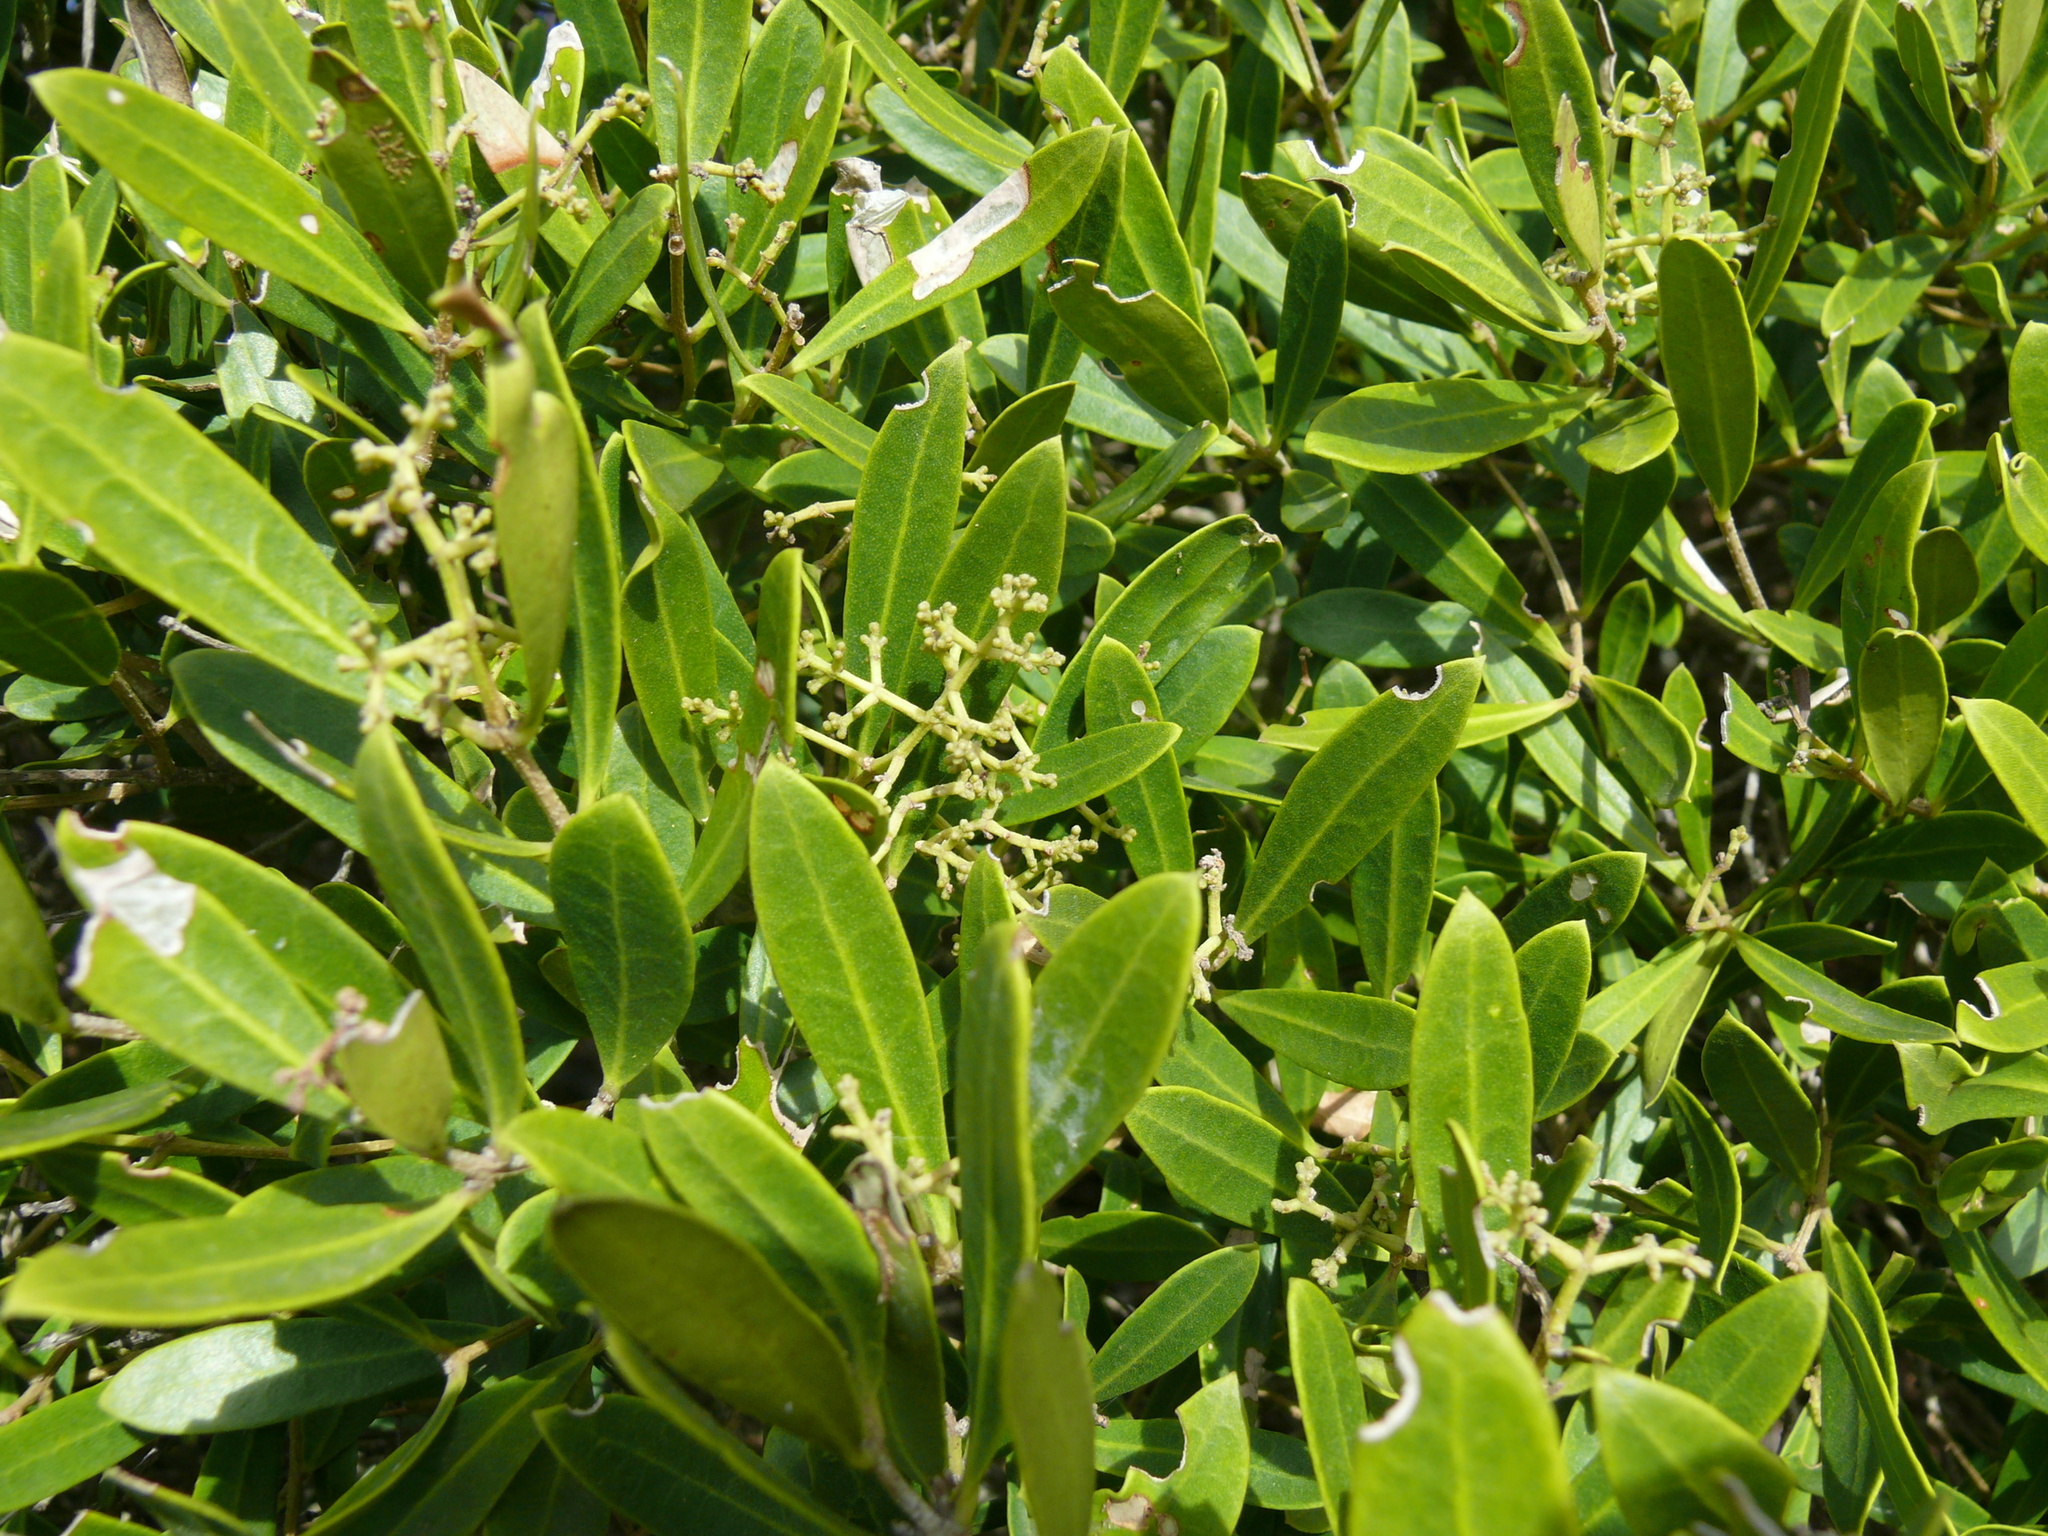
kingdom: Plantae
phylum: Tracheophyta
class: Magnoliopsida
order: Lamiales
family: Oleaceae
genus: Olea
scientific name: Olea exasperata
